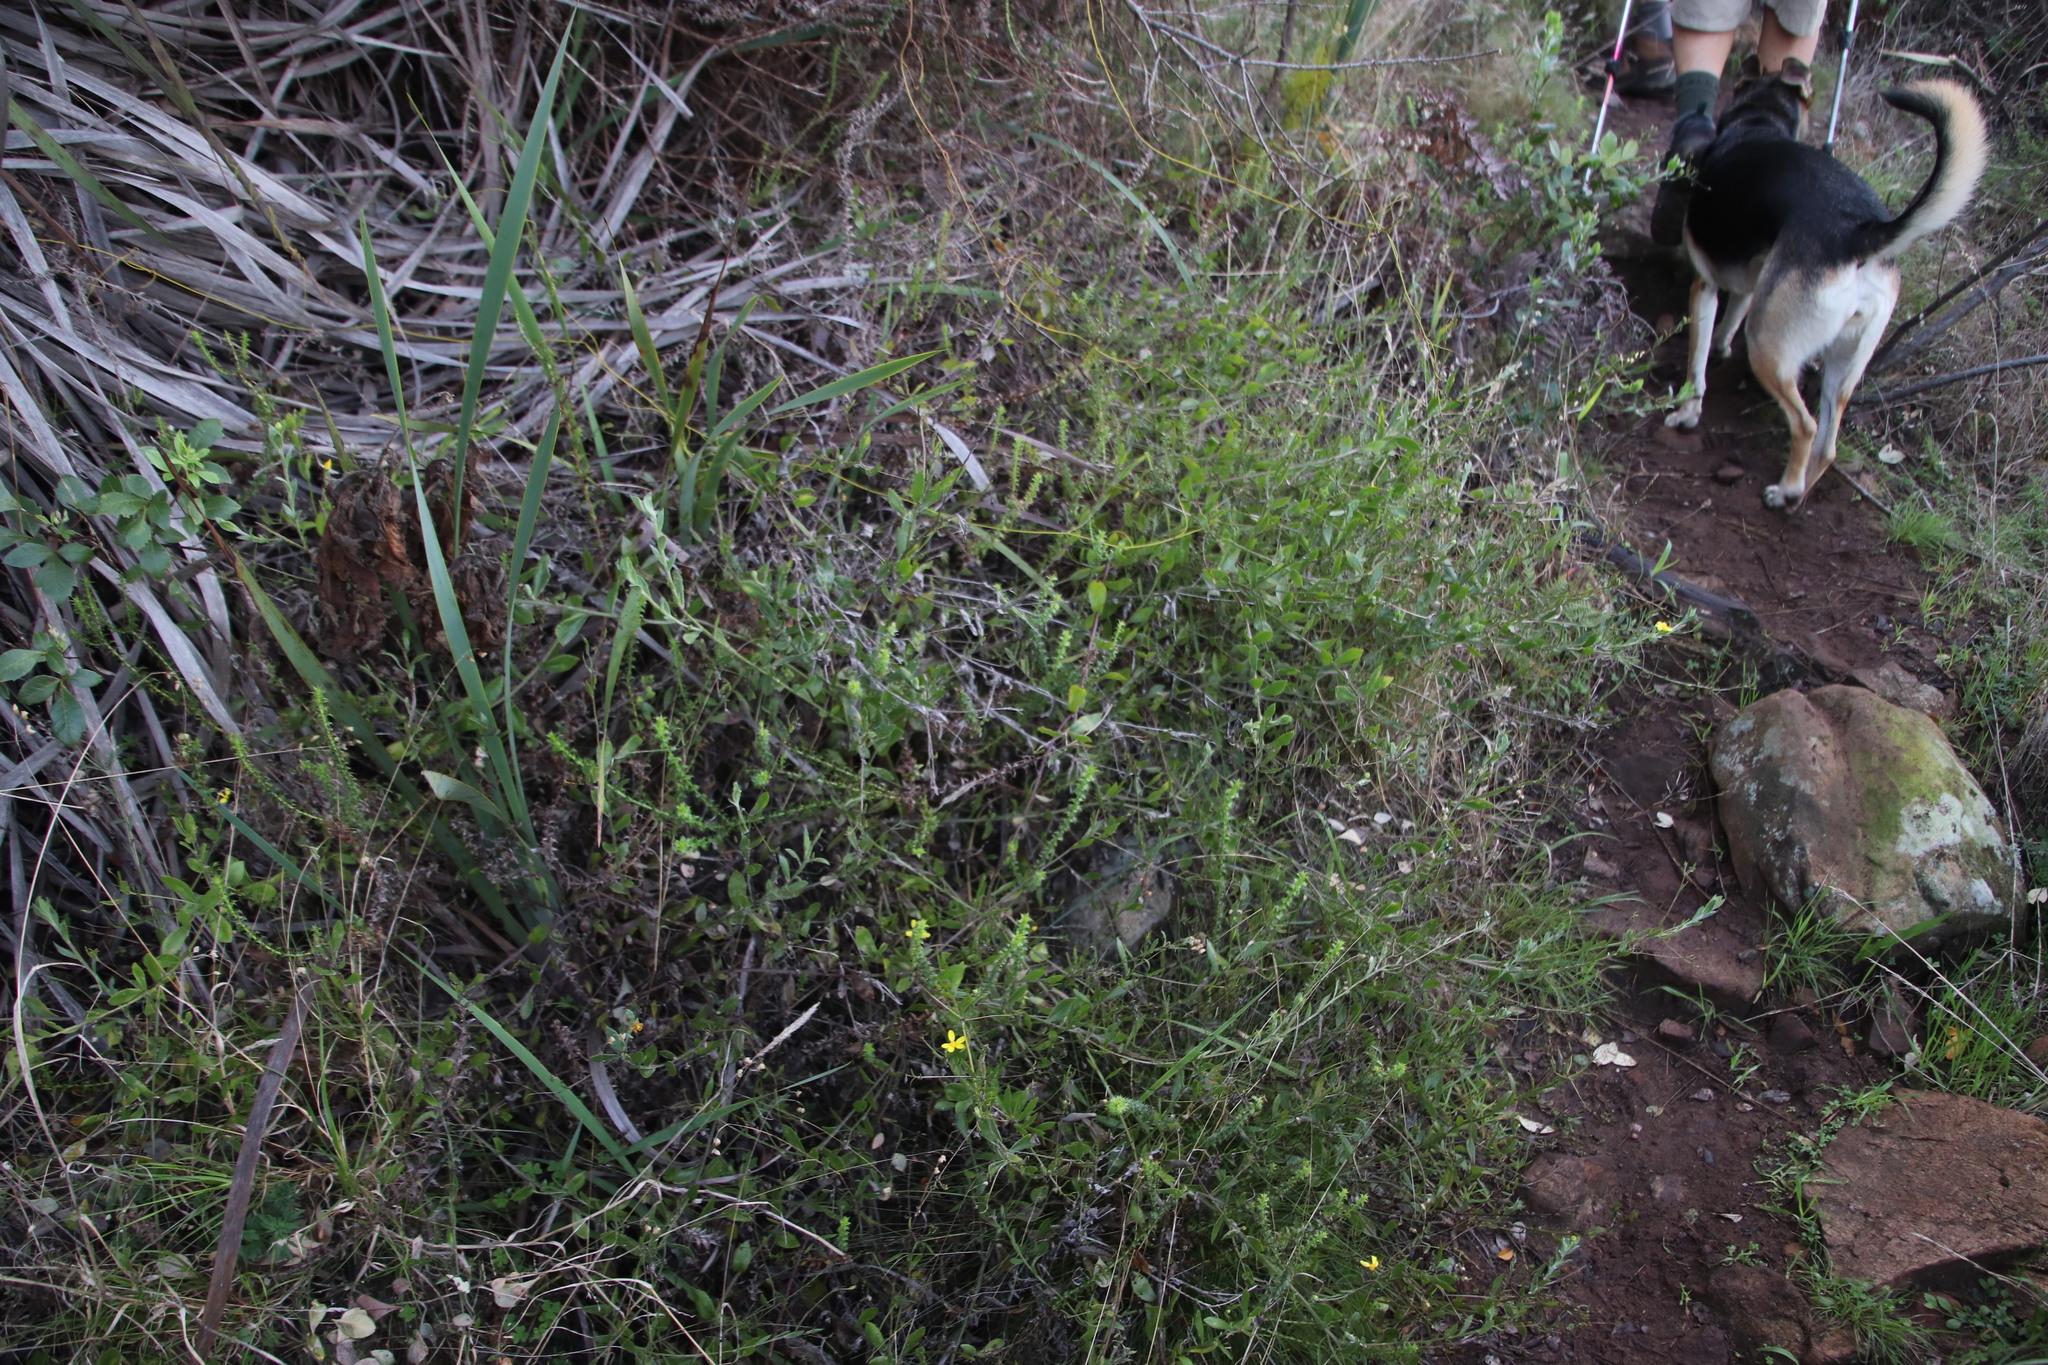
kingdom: Plantae
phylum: Tracheophyta
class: Magnoliopsida
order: Asterales
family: Asteraceae
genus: Osteospermum
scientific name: Osteospermum ciliatum
